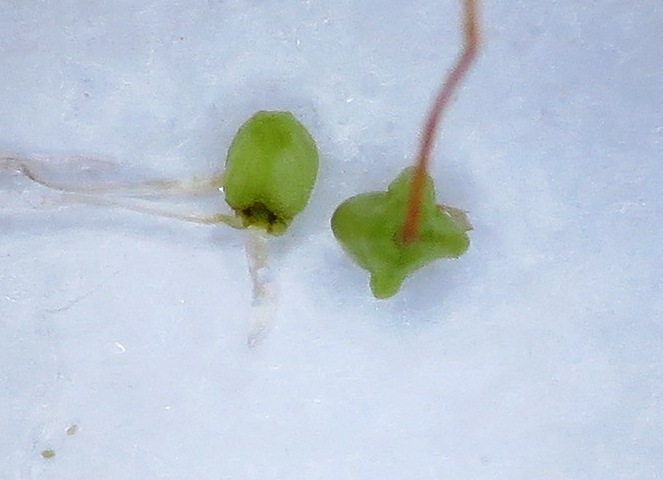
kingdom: Plantae
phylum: Tracheophyta
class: Magnoliopsida
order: Ericales
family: Ericaceae
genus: Erica
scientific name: Erica karwyderi
